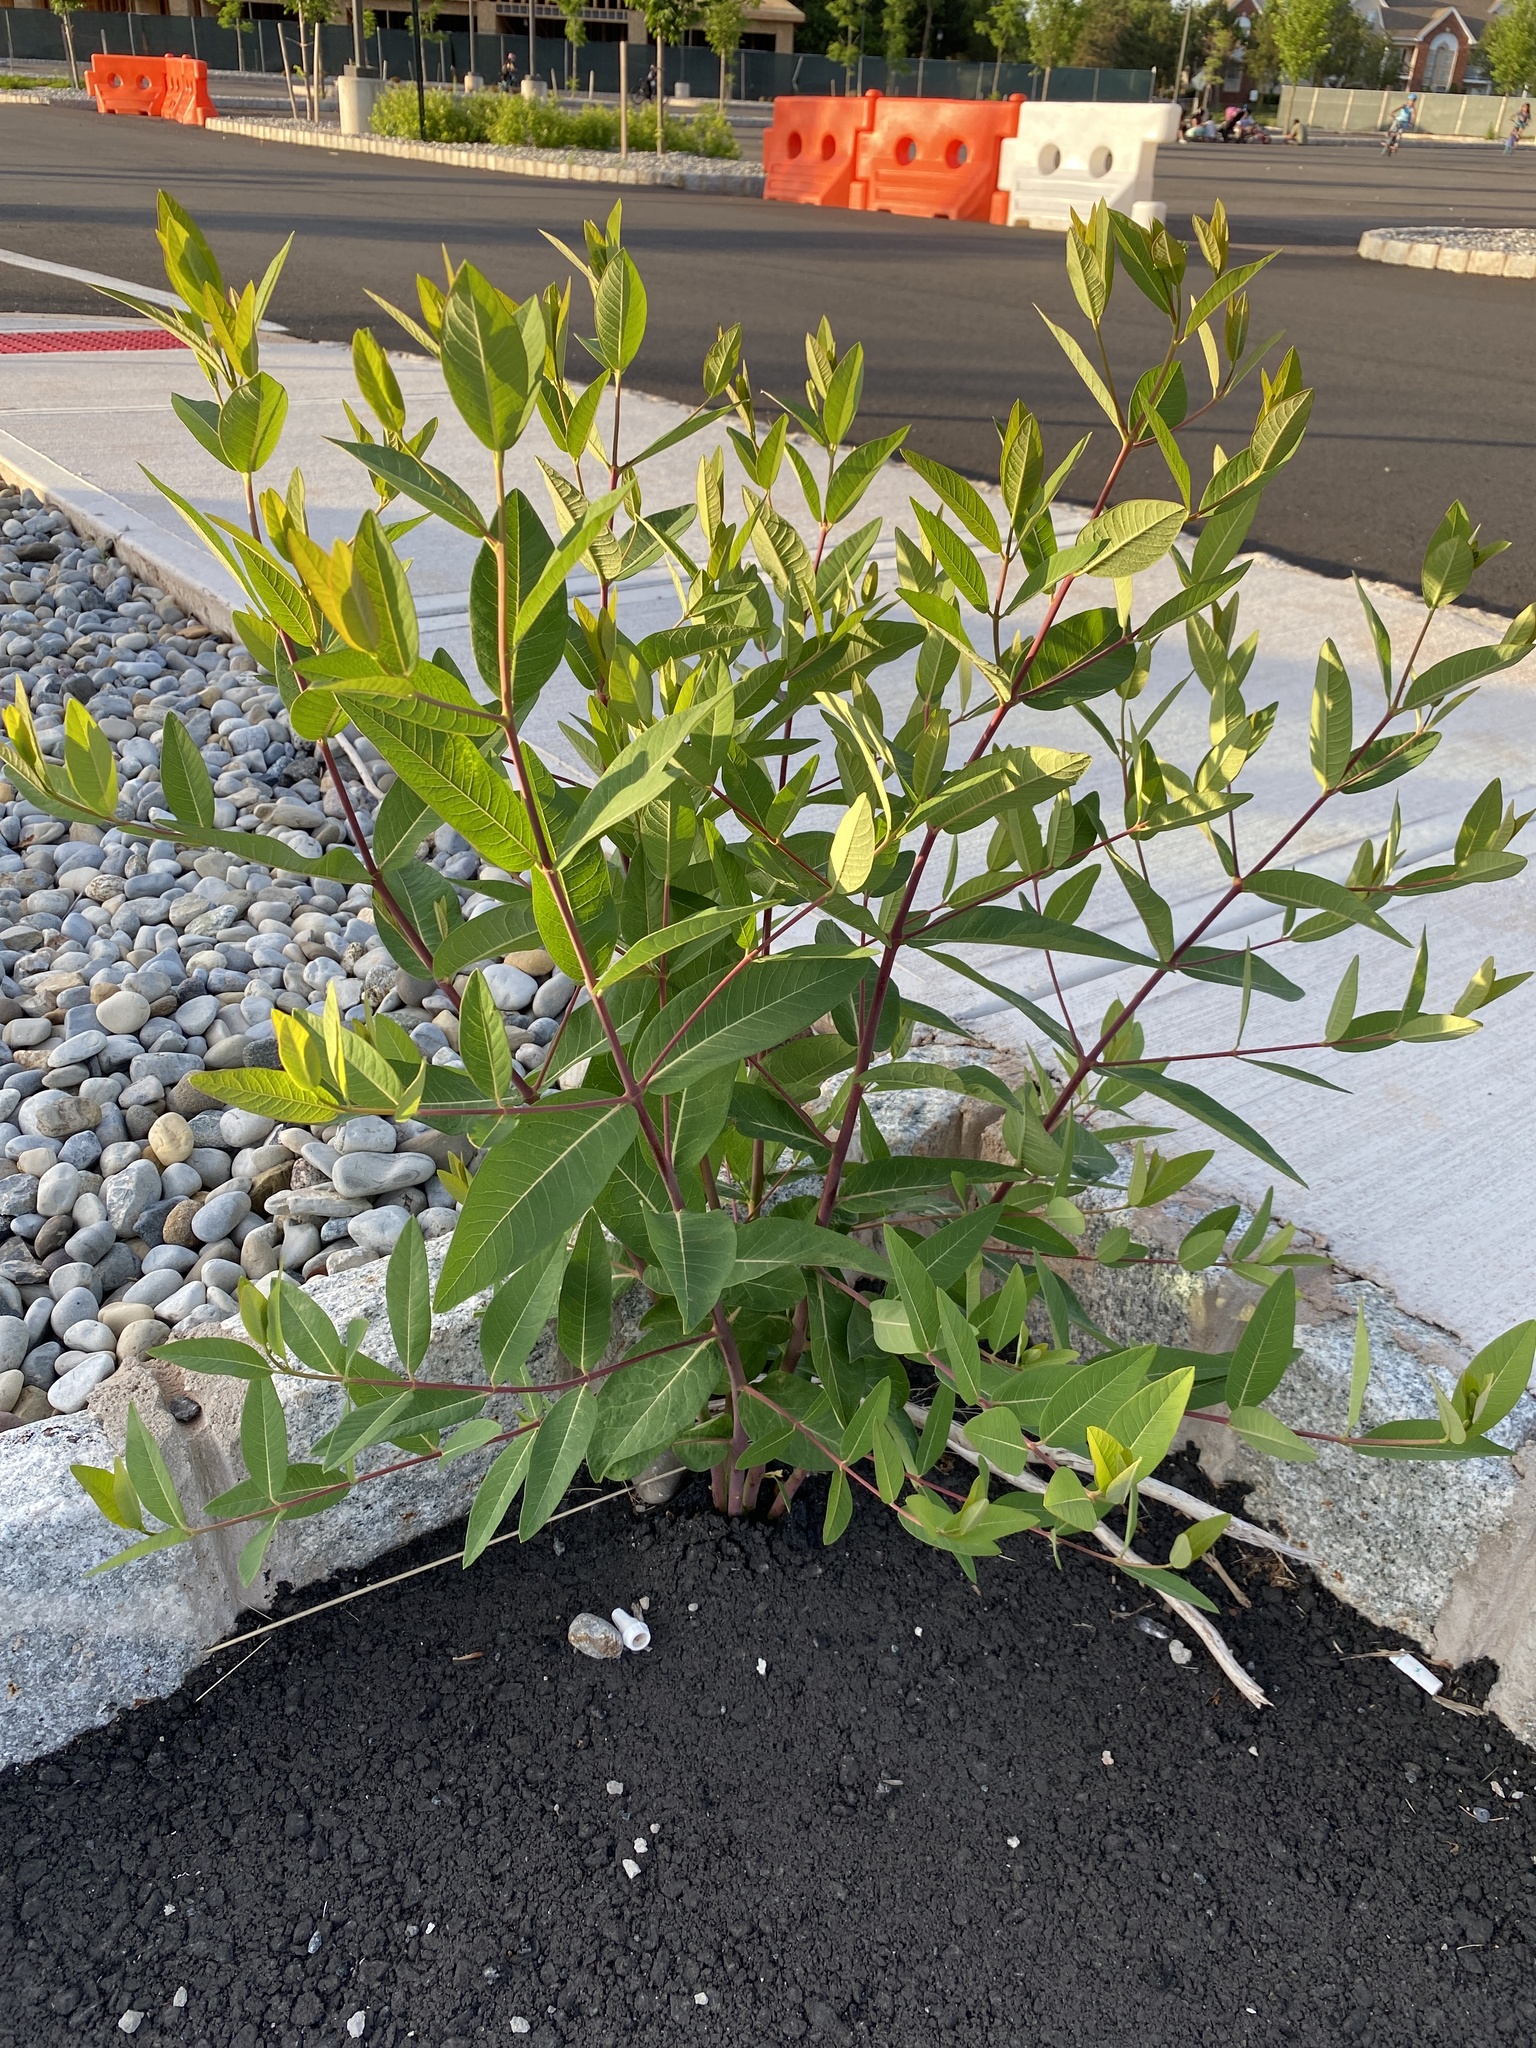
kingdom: Plantae
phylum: Tracheophyta
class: Magnoliopsida
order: Gentianales
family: Apocynaceae
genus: Apocynum
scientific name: Apocynum cannabinum
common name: Hemp dogbane
